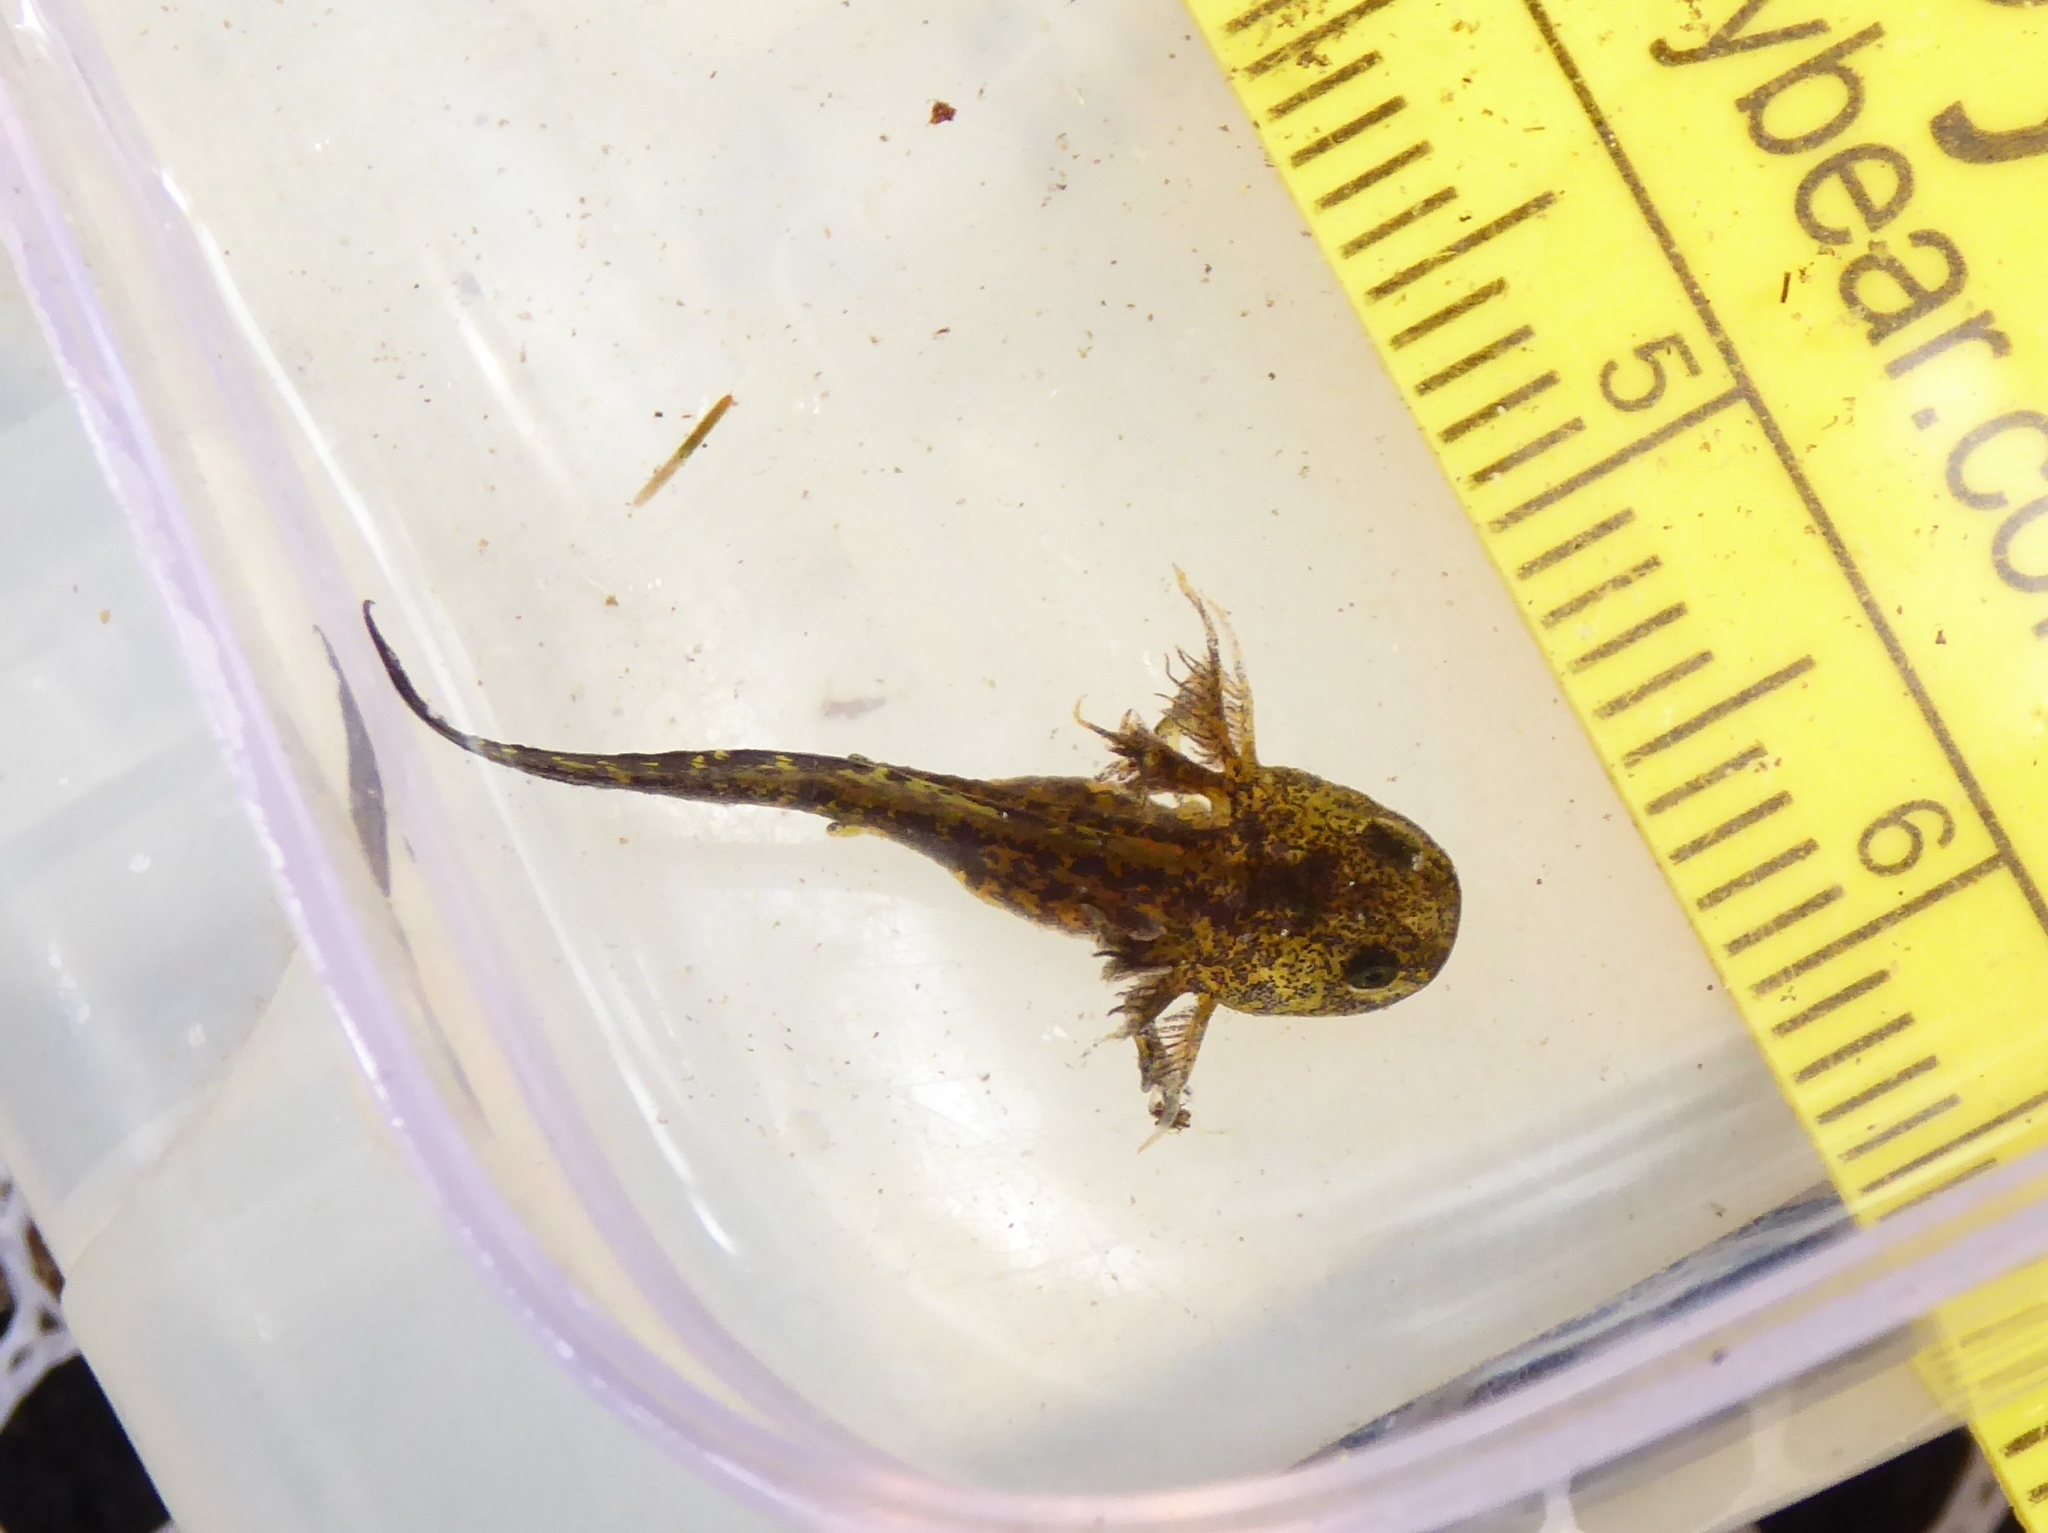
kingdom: Animalia
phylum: Chordata
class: Amphibia
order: Caudata
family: Ambystomatidae
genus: Ambystoma
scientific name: Ambystoma macrodactylum
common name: Long-toed salamander
